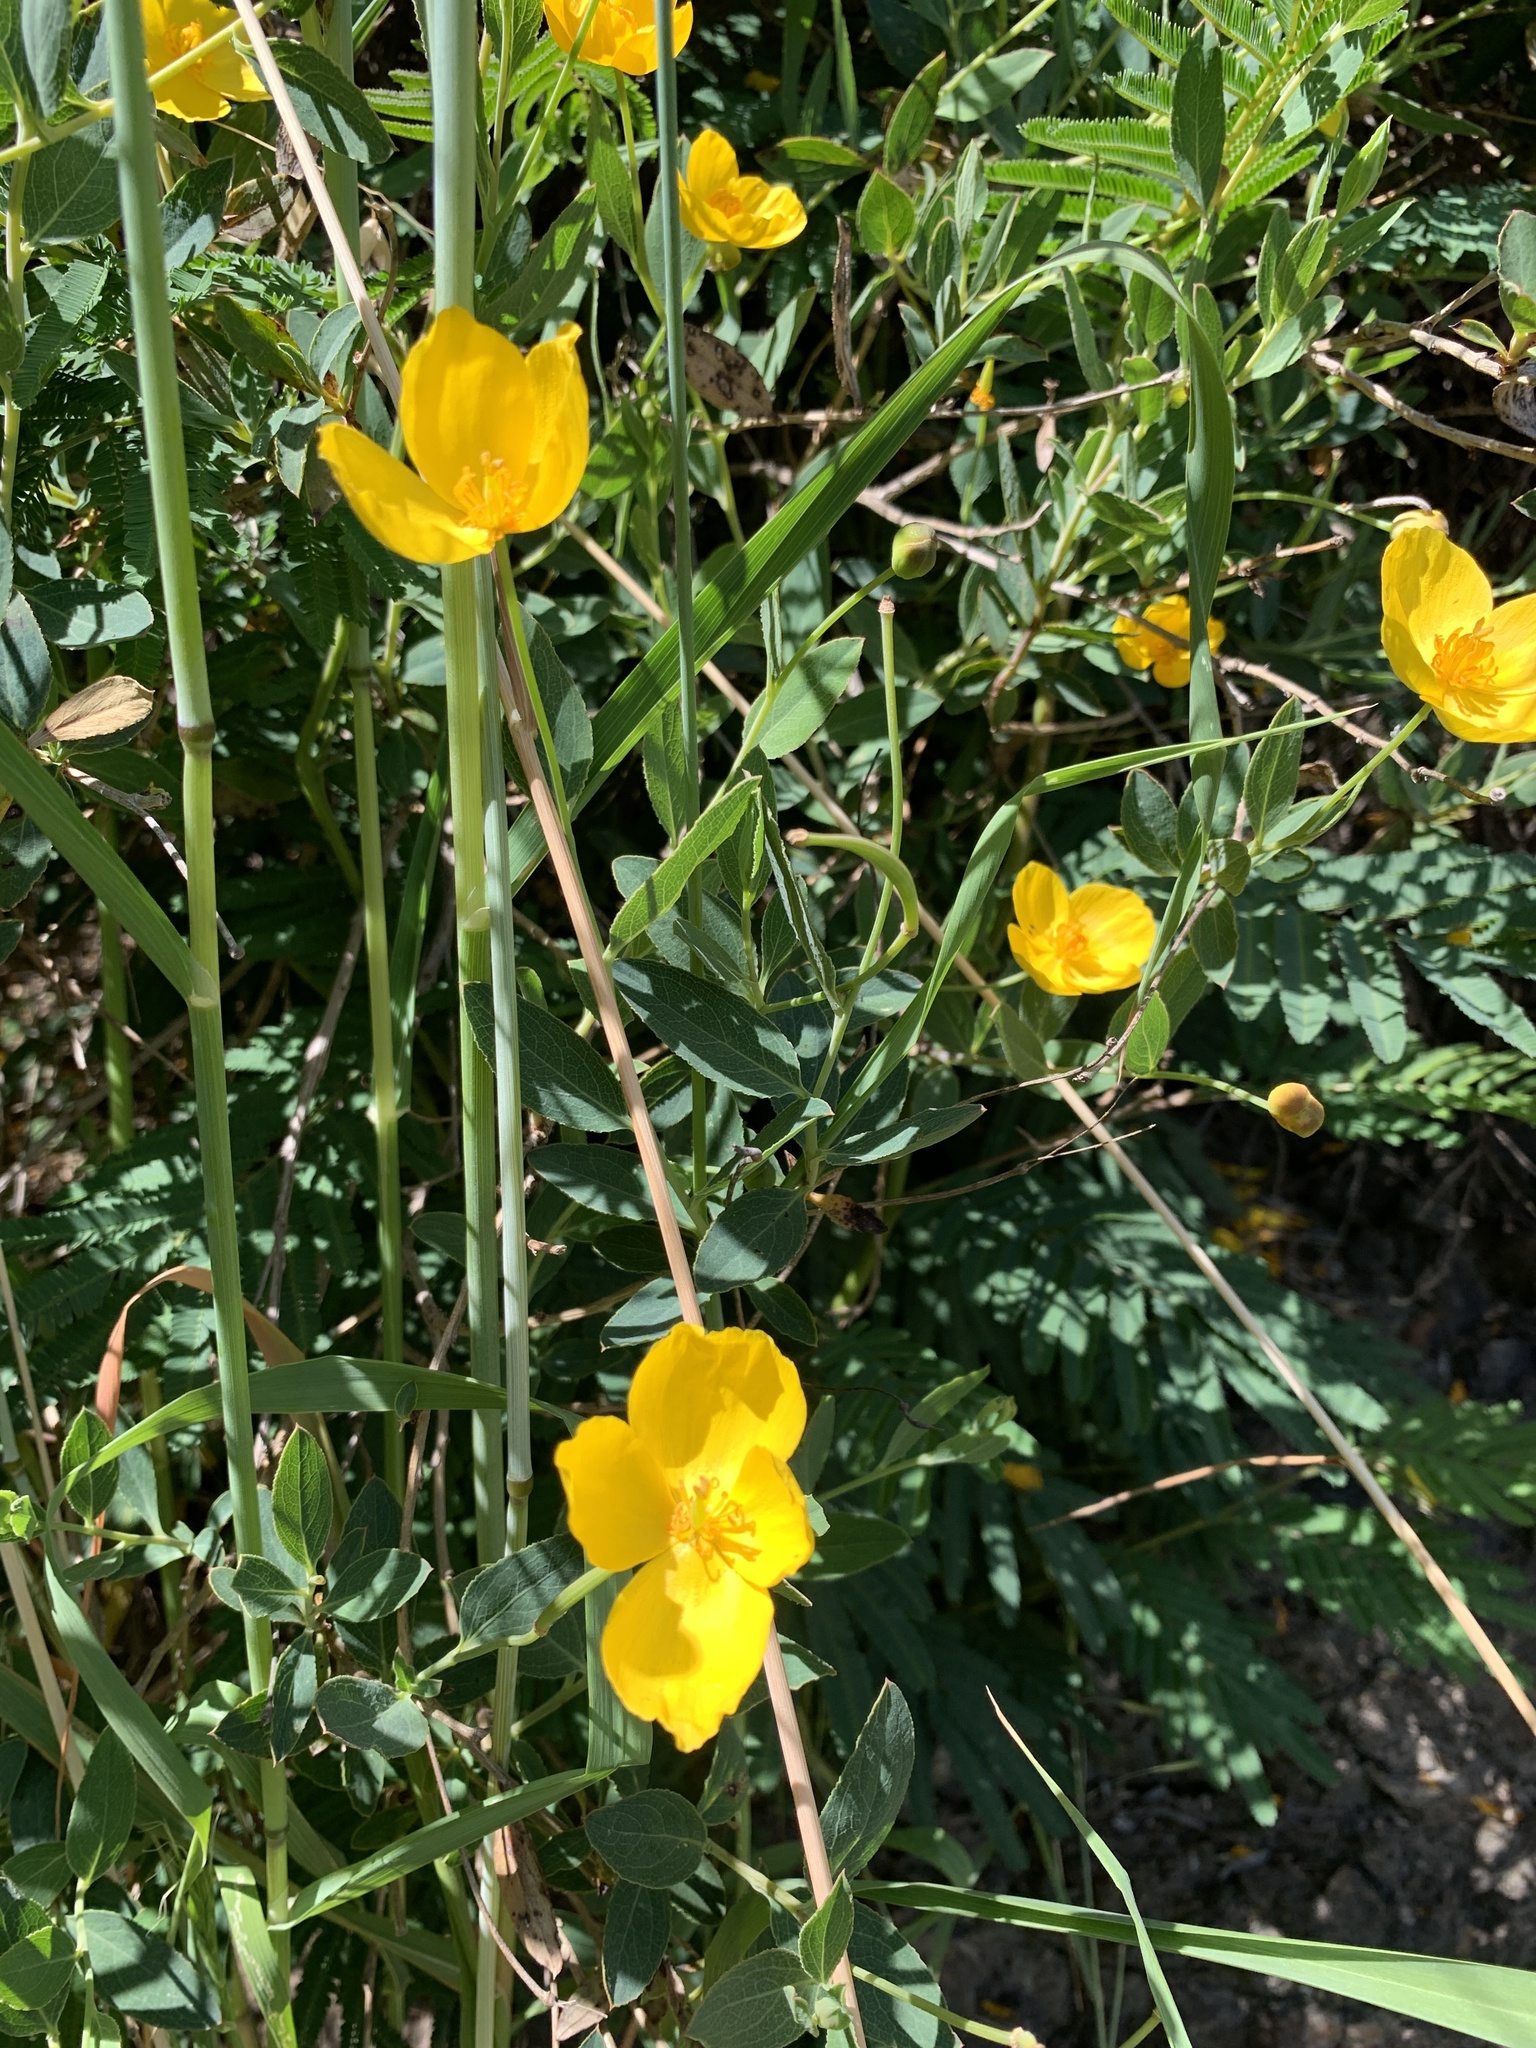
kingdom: Plantae
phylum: Tracheophyta
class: Magnoliopsida
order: Ranunculales
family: Papaveraceae
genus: Dendromecon
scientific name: Dendromecon rigida
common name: Tree poppy
